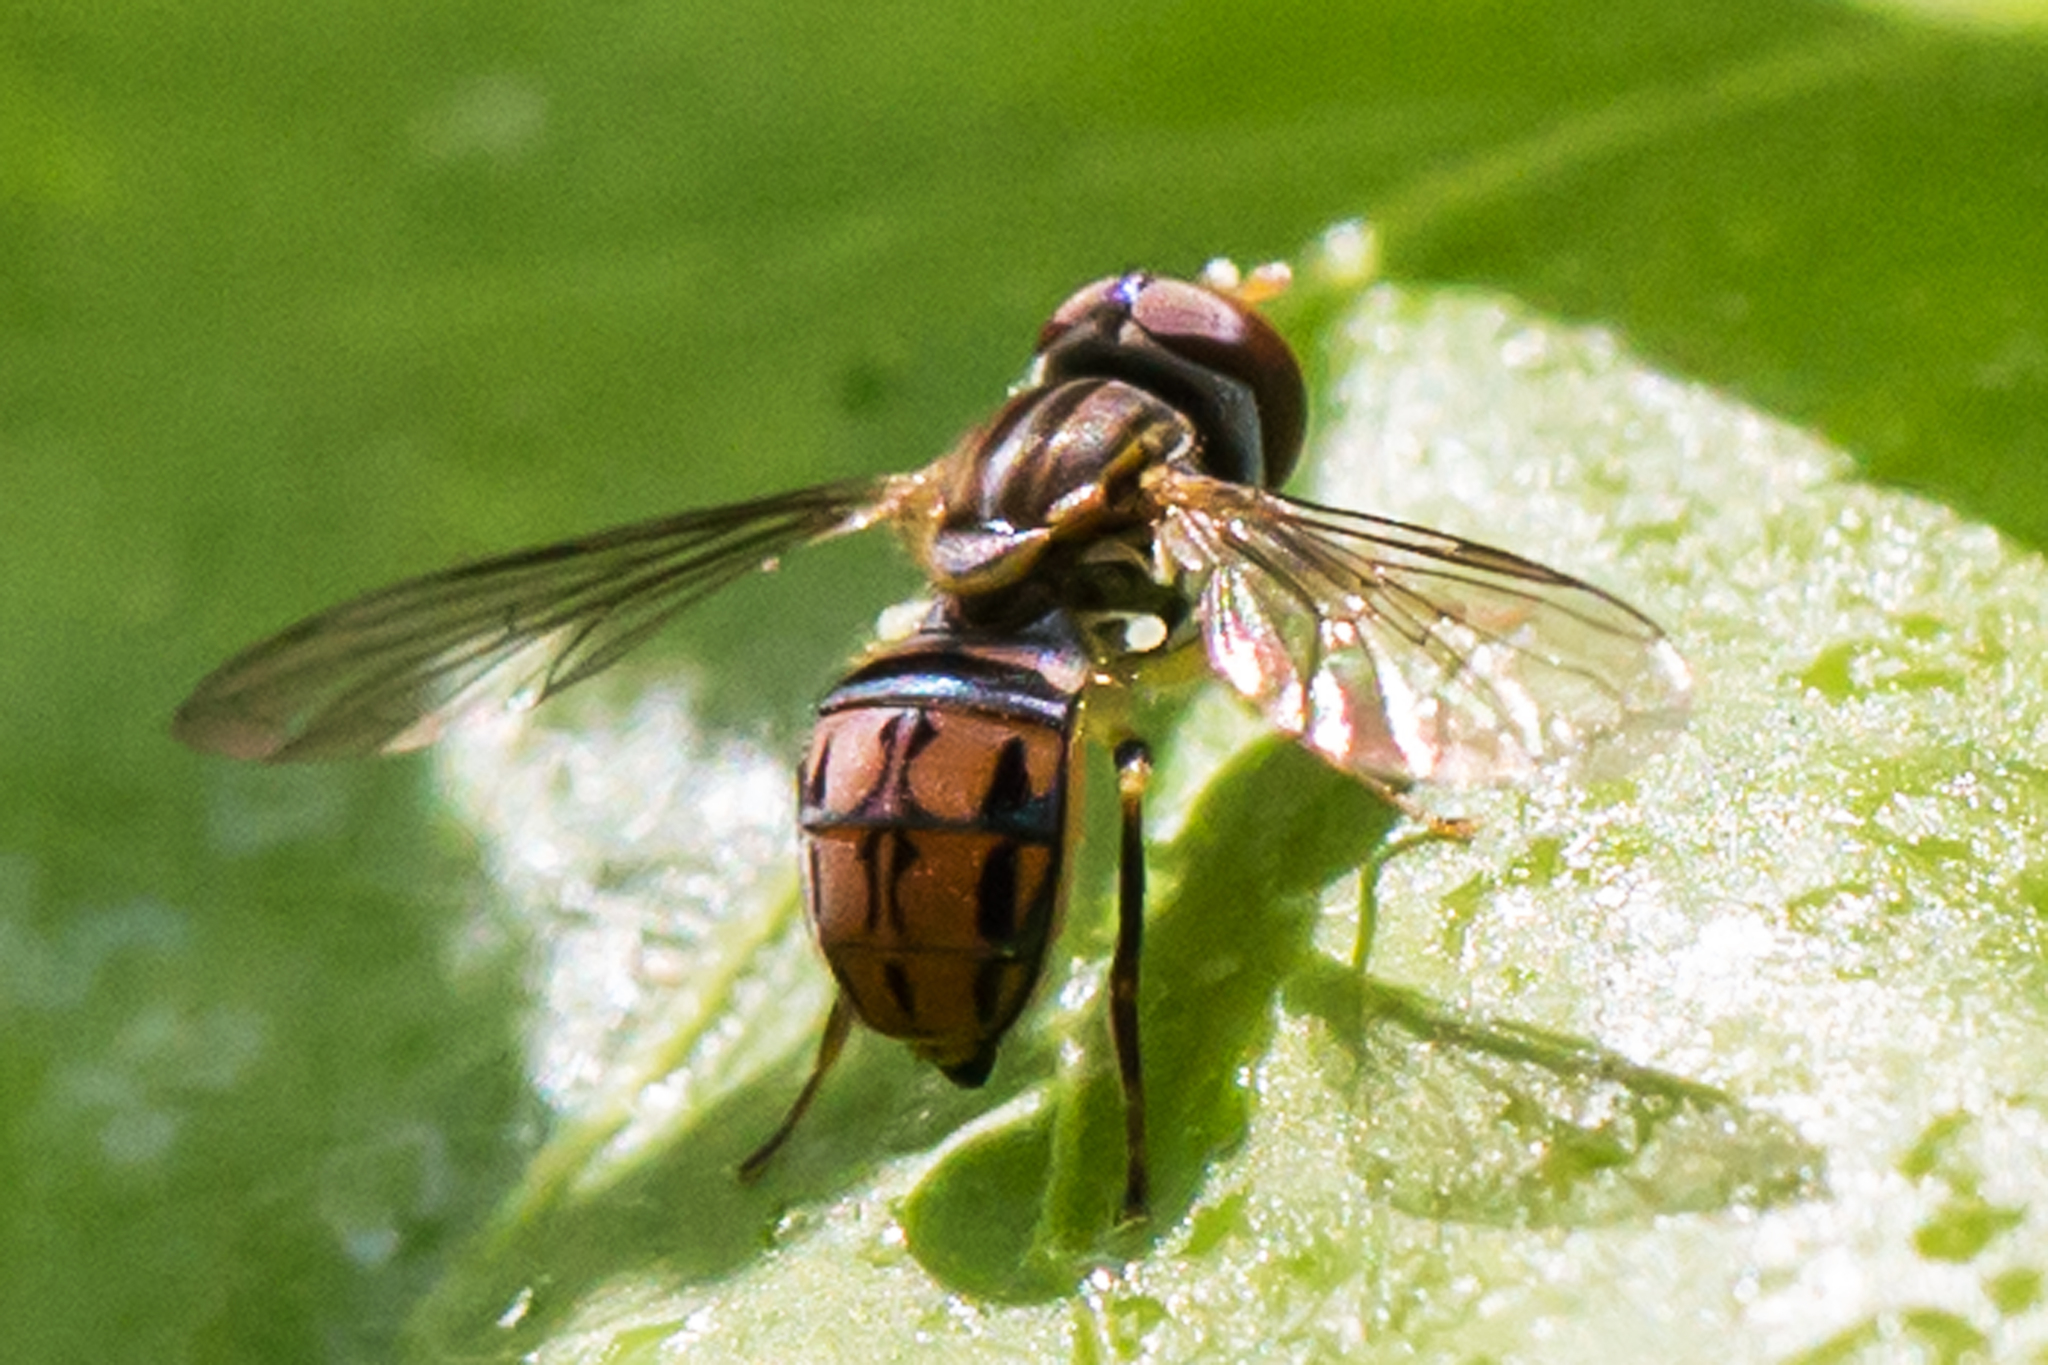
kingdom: Animalia
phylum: Arthropoda
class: Insecta
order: Diptera
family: Syrphidae
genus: Toxomerus
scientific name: Toxomerus boscii
